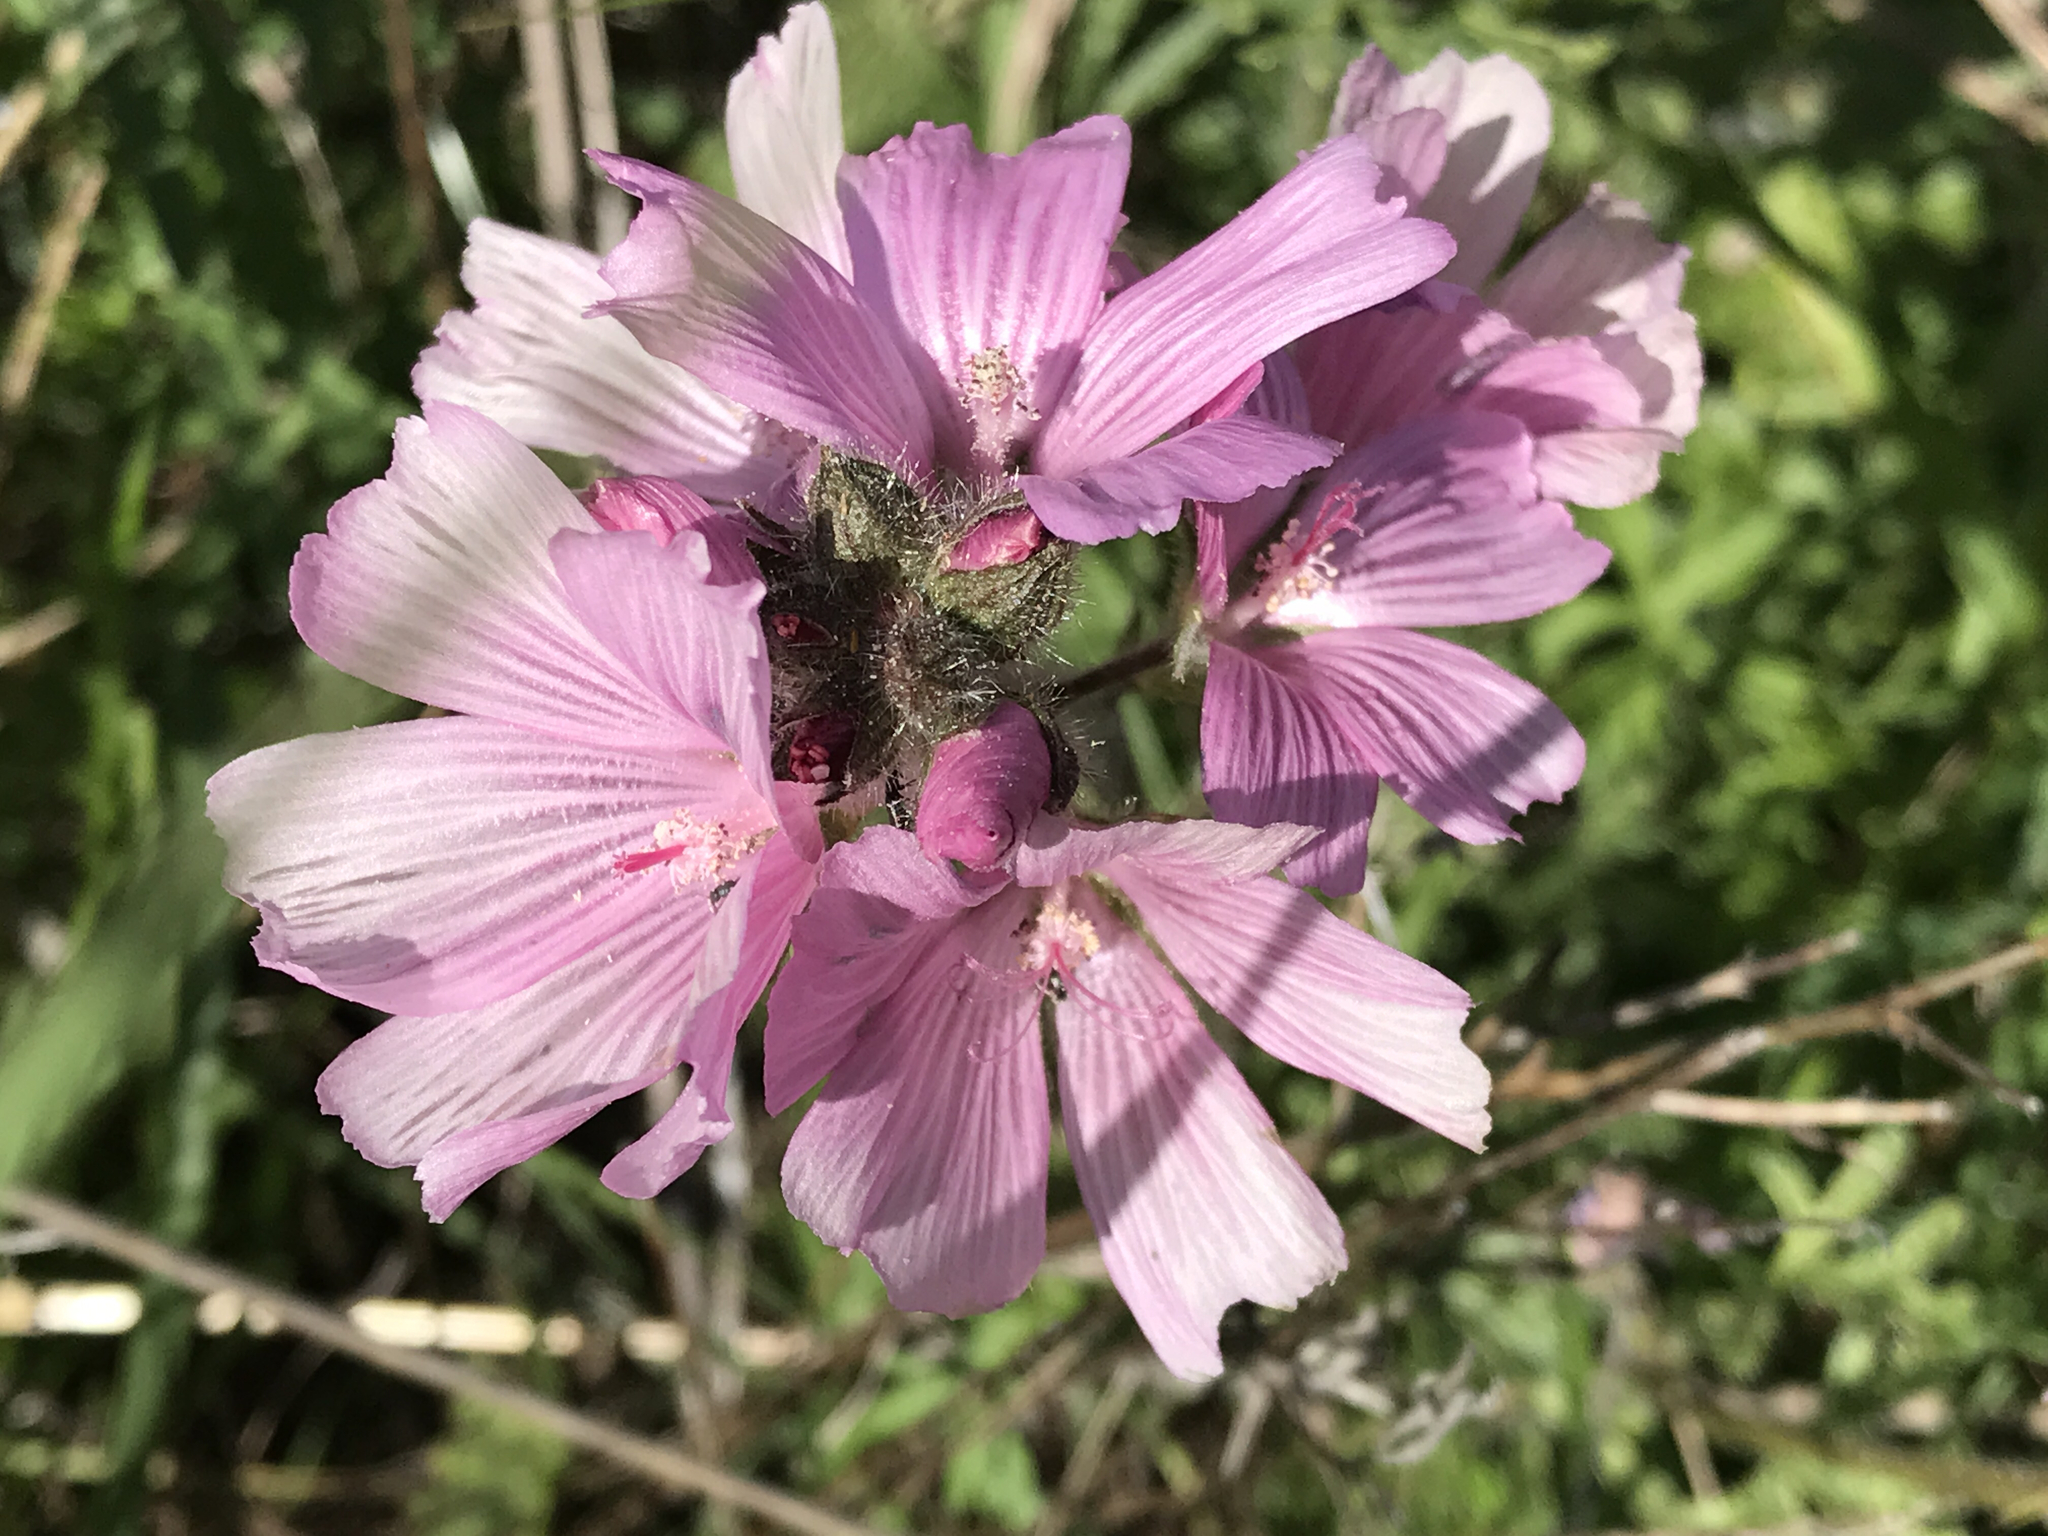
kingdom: Plantae
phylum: Tracheophyta
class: Magnoliopsida
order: Malvales
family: Malvaceae
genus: Sidalcea
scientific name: Sidalcea malviflora
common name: Greek mallow
